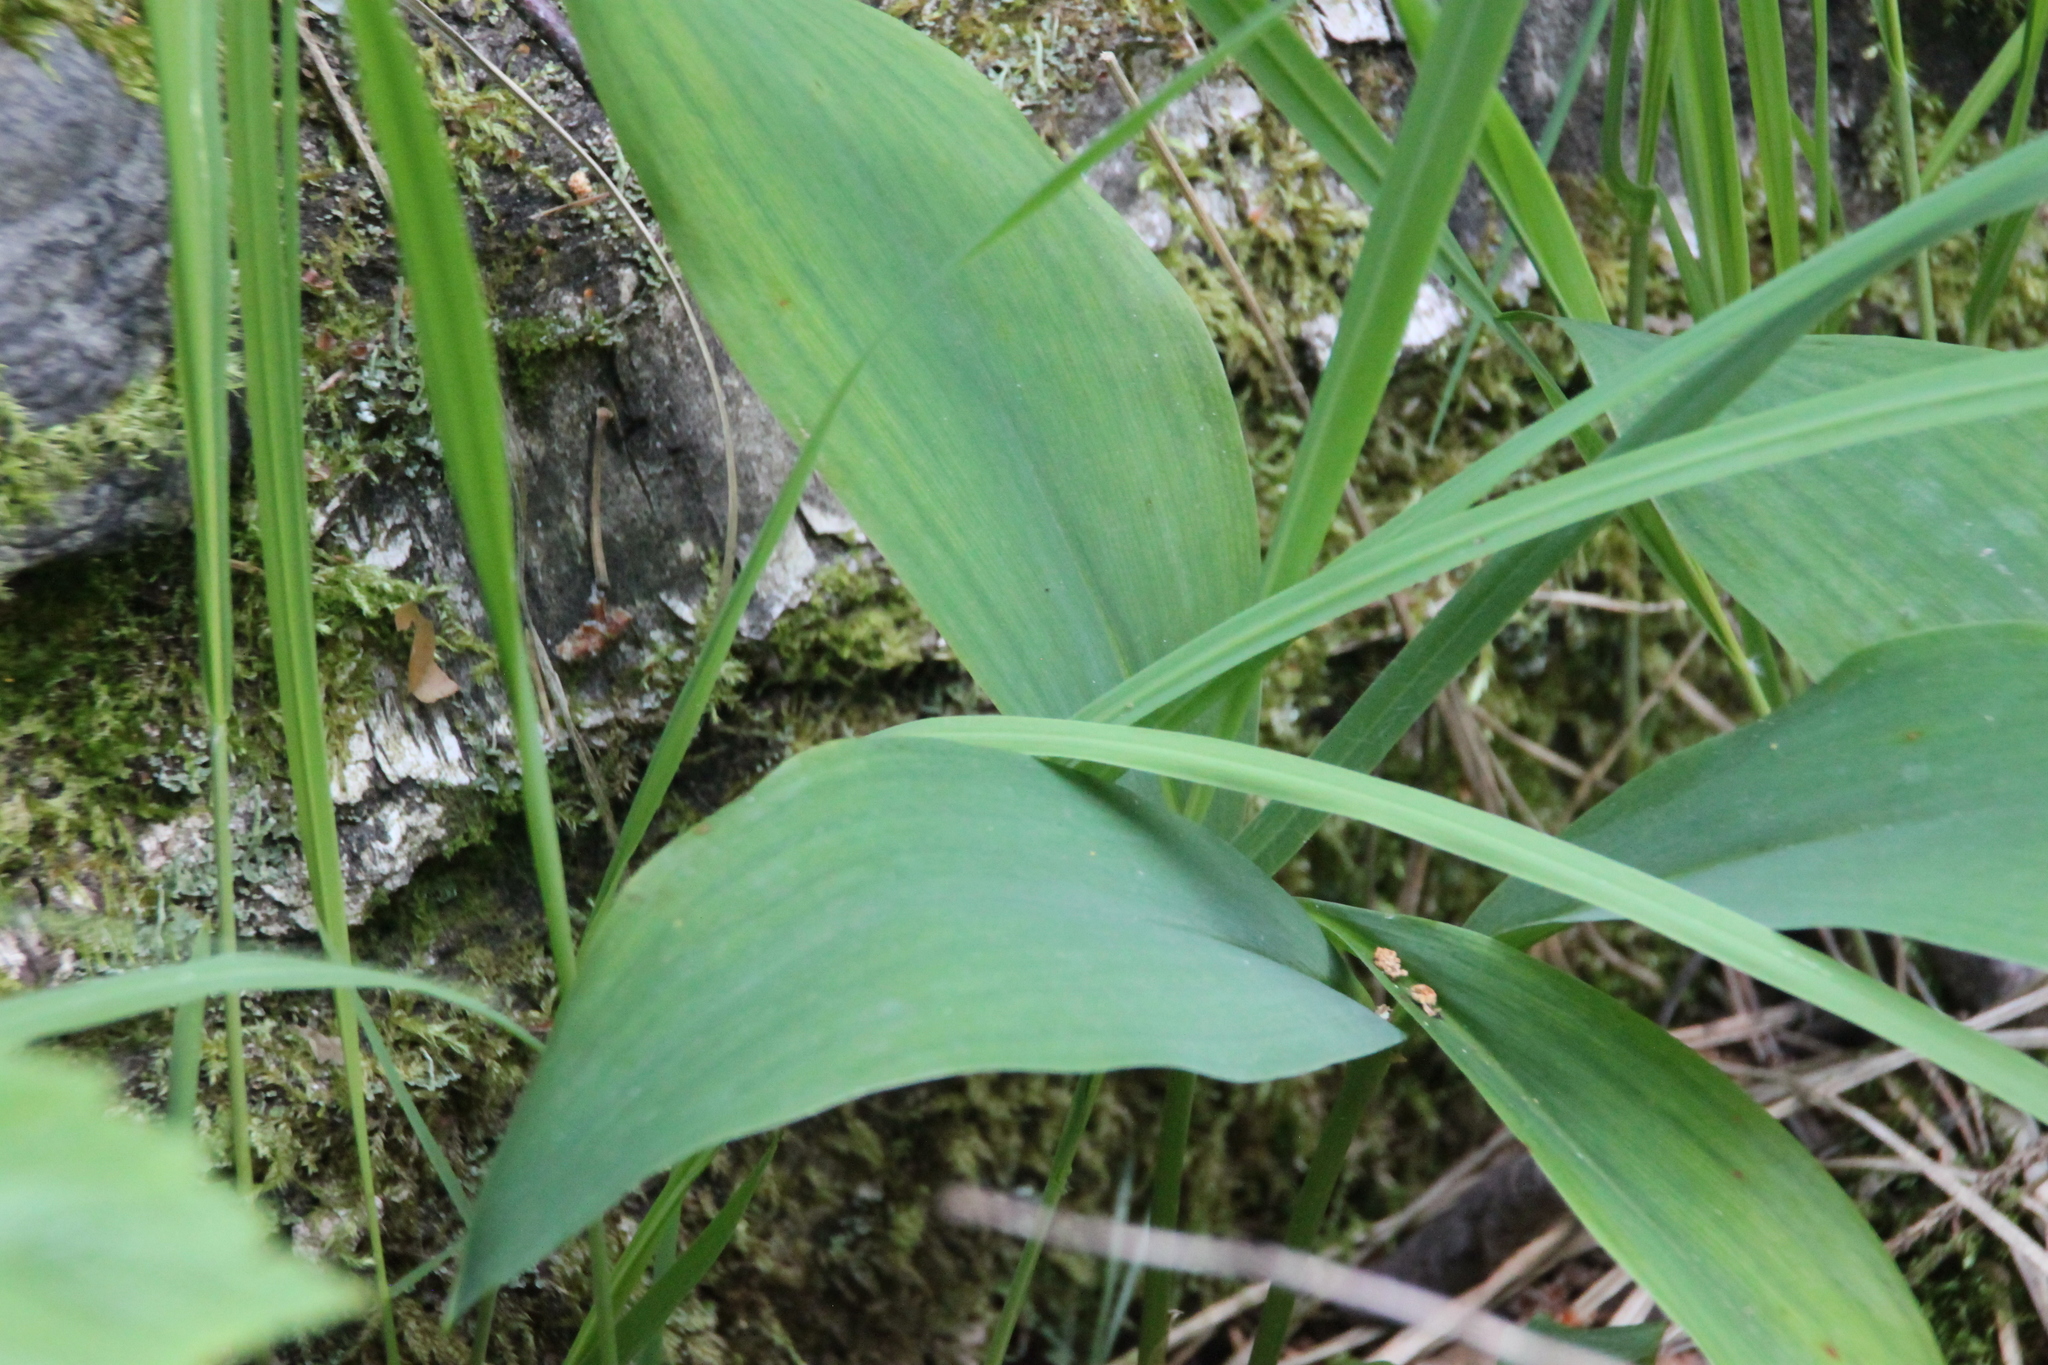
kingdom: Plantae
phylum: Tracheophyta
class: Liliopsida
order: Asparagales
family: Asparagaceae
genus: Convallaria
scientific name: Convallaria majalis
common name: Lily-of-the-valley
